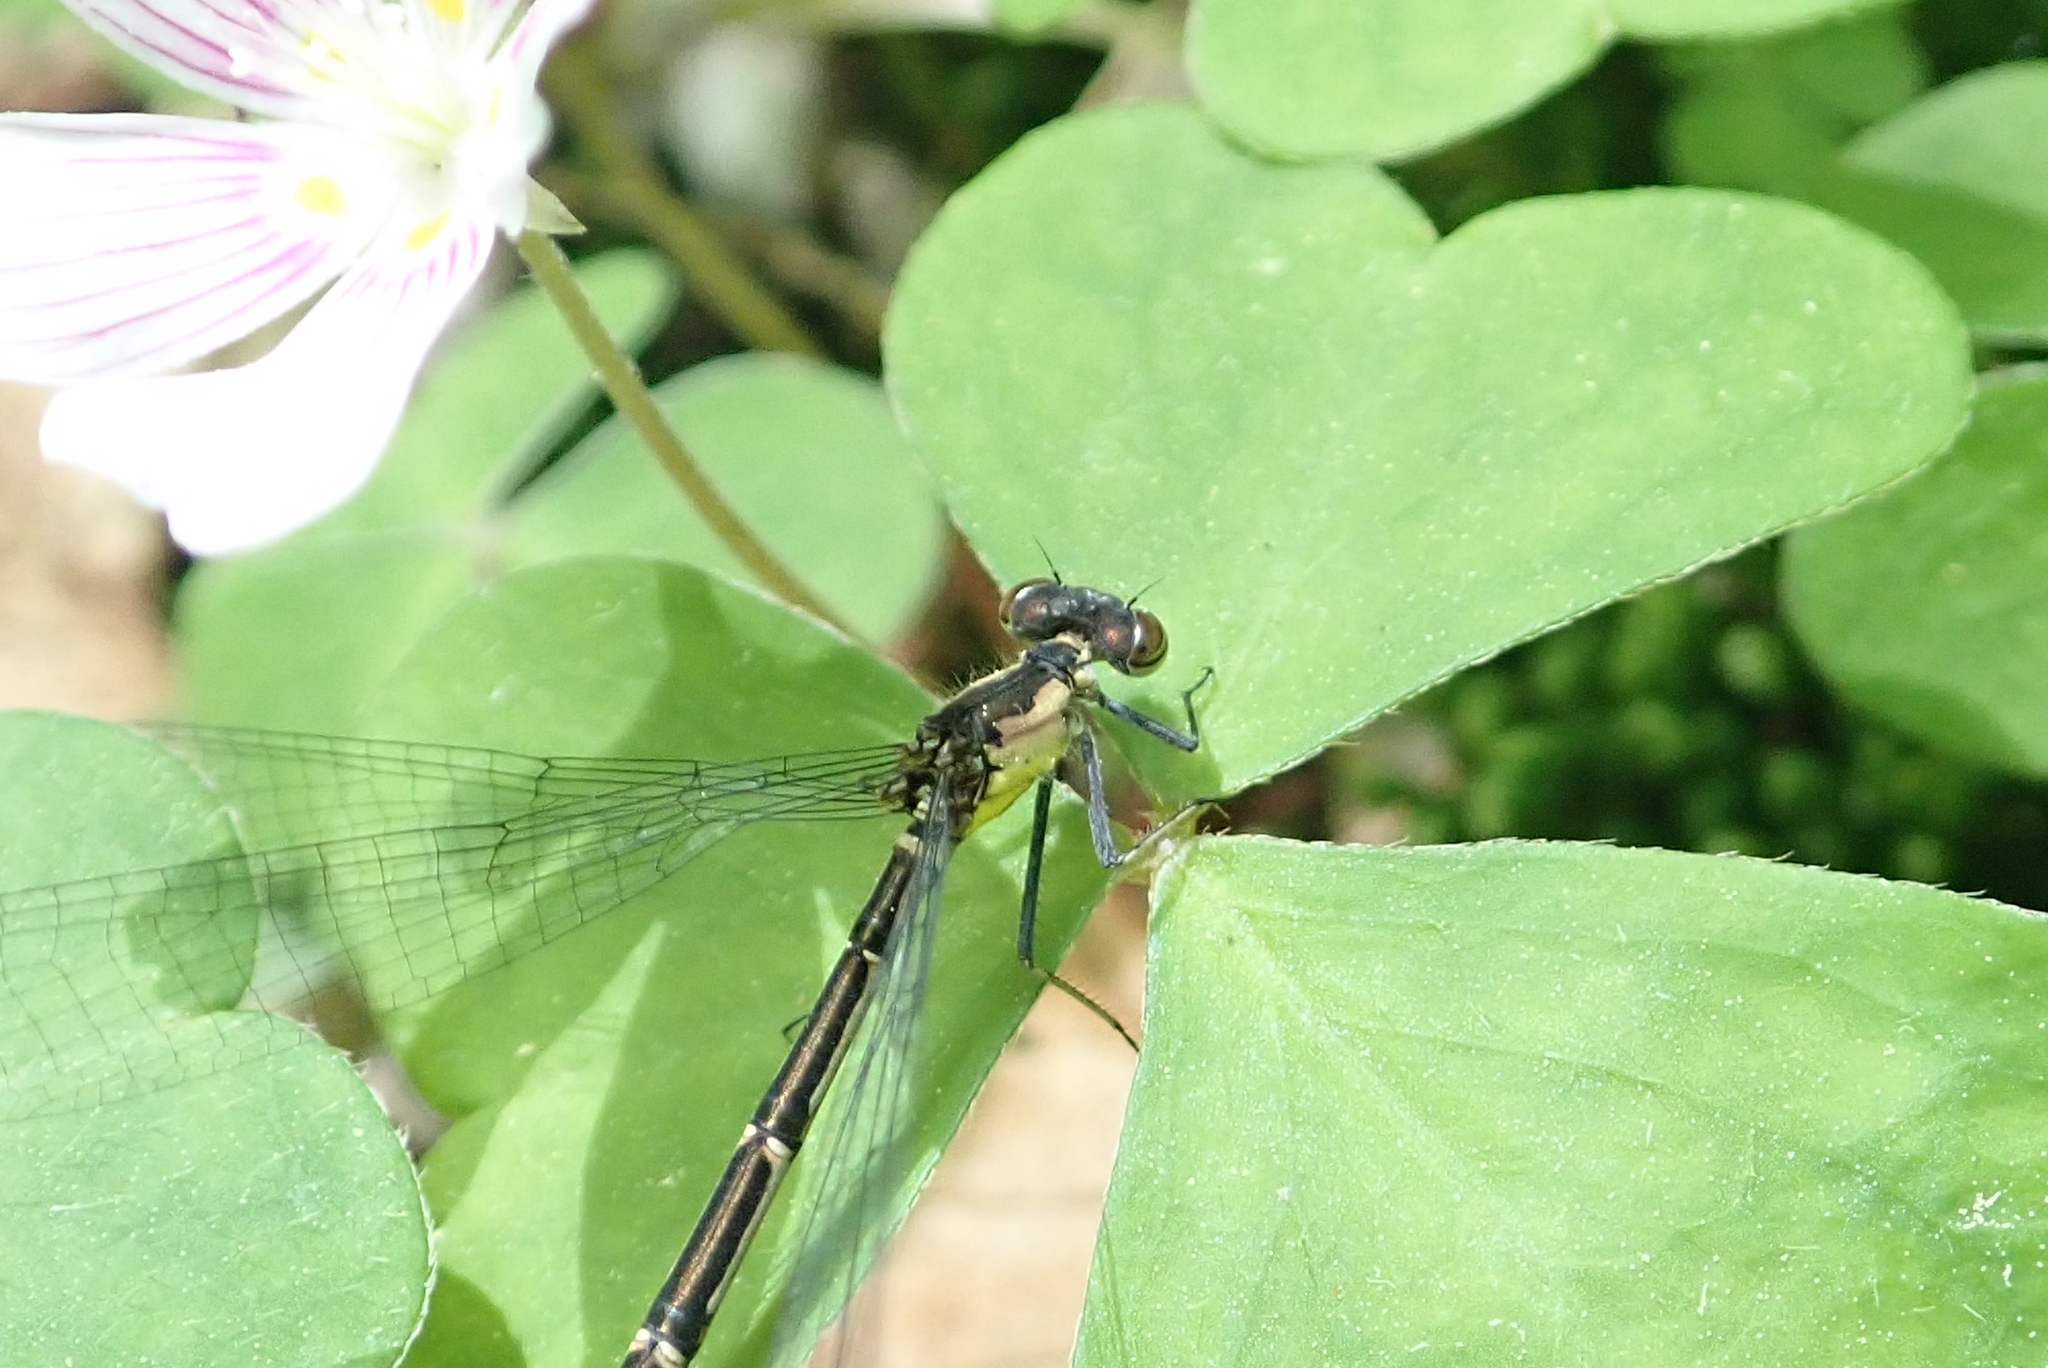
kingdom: Animalia
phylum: Arthropoda
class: Insecta
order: Odonata
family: Coenagrionidae
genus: Chromagrion
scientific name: Chromagrion conditum
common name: Aurora damsel
